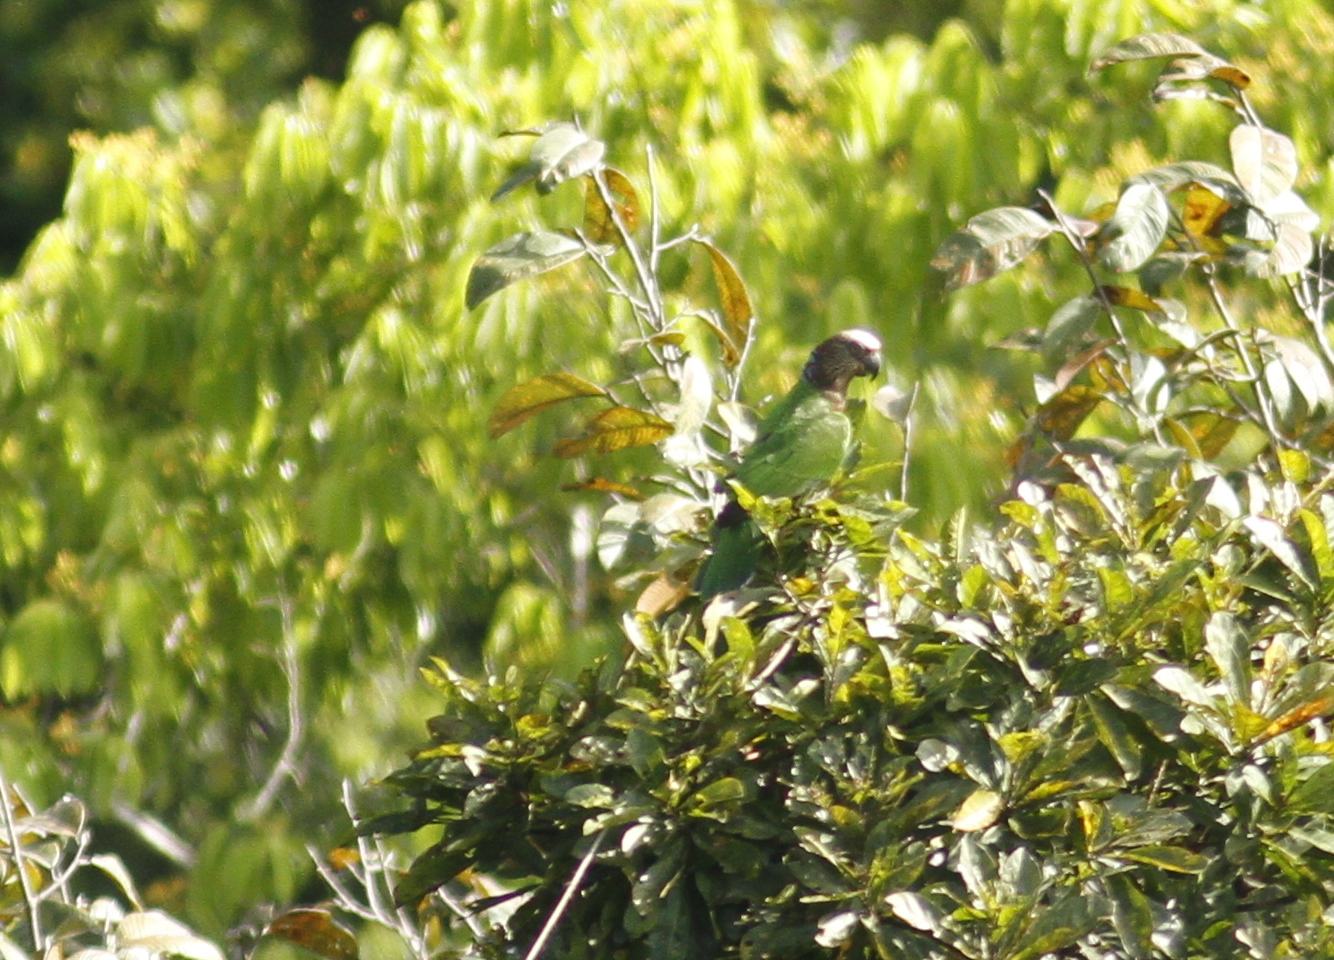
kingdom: Animalia
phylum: Chordata
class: Aves
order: Psittaciformes
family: Psittacidae
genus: Deroptyus
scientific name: Deroptyus accipitrinus
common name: Red-fan parrot
